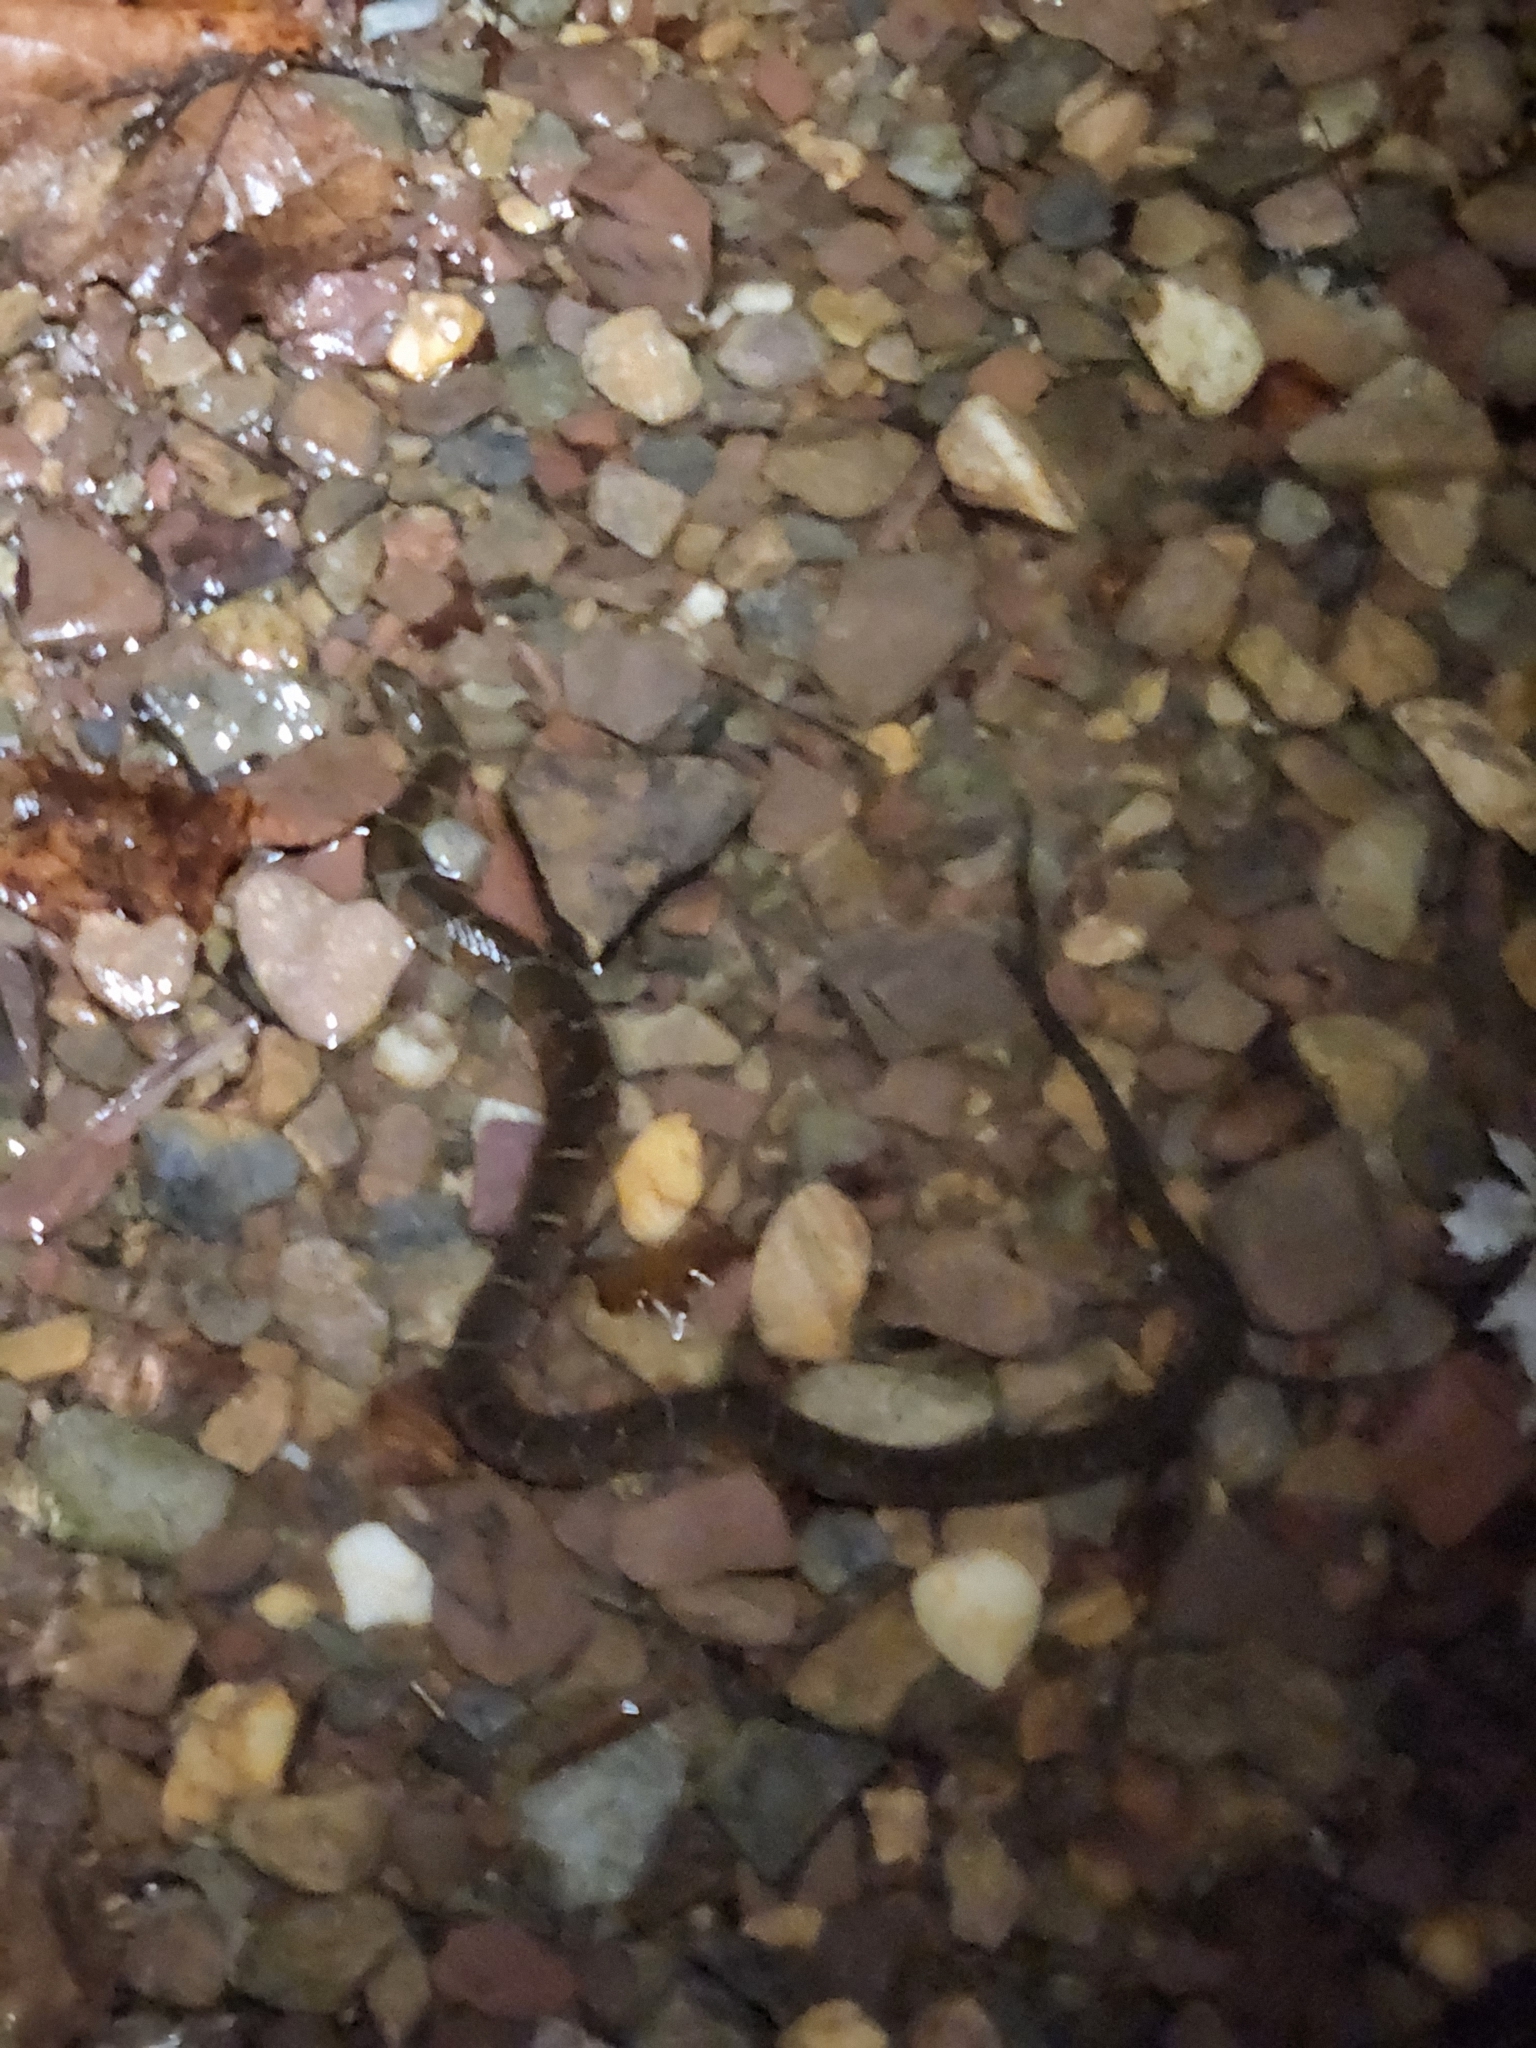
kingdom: Animalia
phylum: Chordata
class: Squamata
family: Colubridae
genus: Nerodia
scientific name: Nerodia sipedon
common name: Northern water snake
